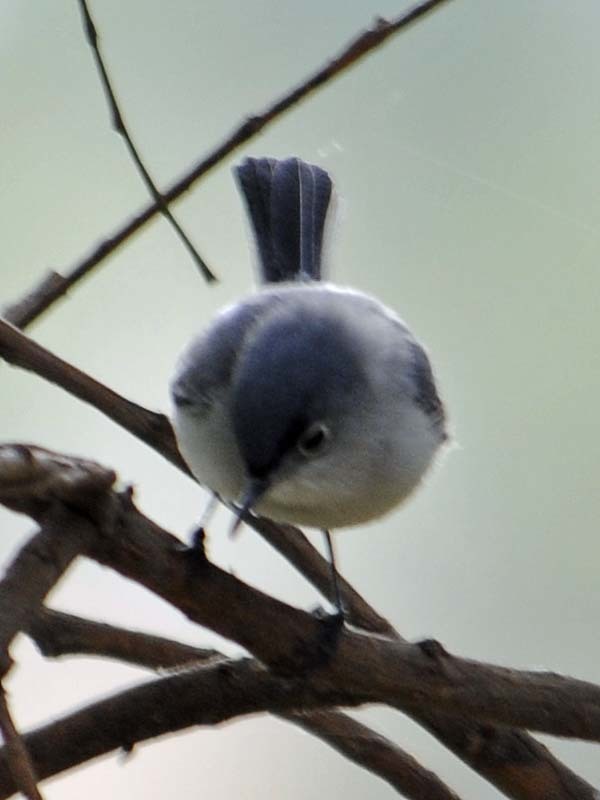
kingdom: Animalia
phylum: Chordata
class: Aves
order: Passeriformes
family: Polioptilidae
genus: Polioptila
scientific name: Polioptila caerulea
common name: Blue-gray gnatcatcher
